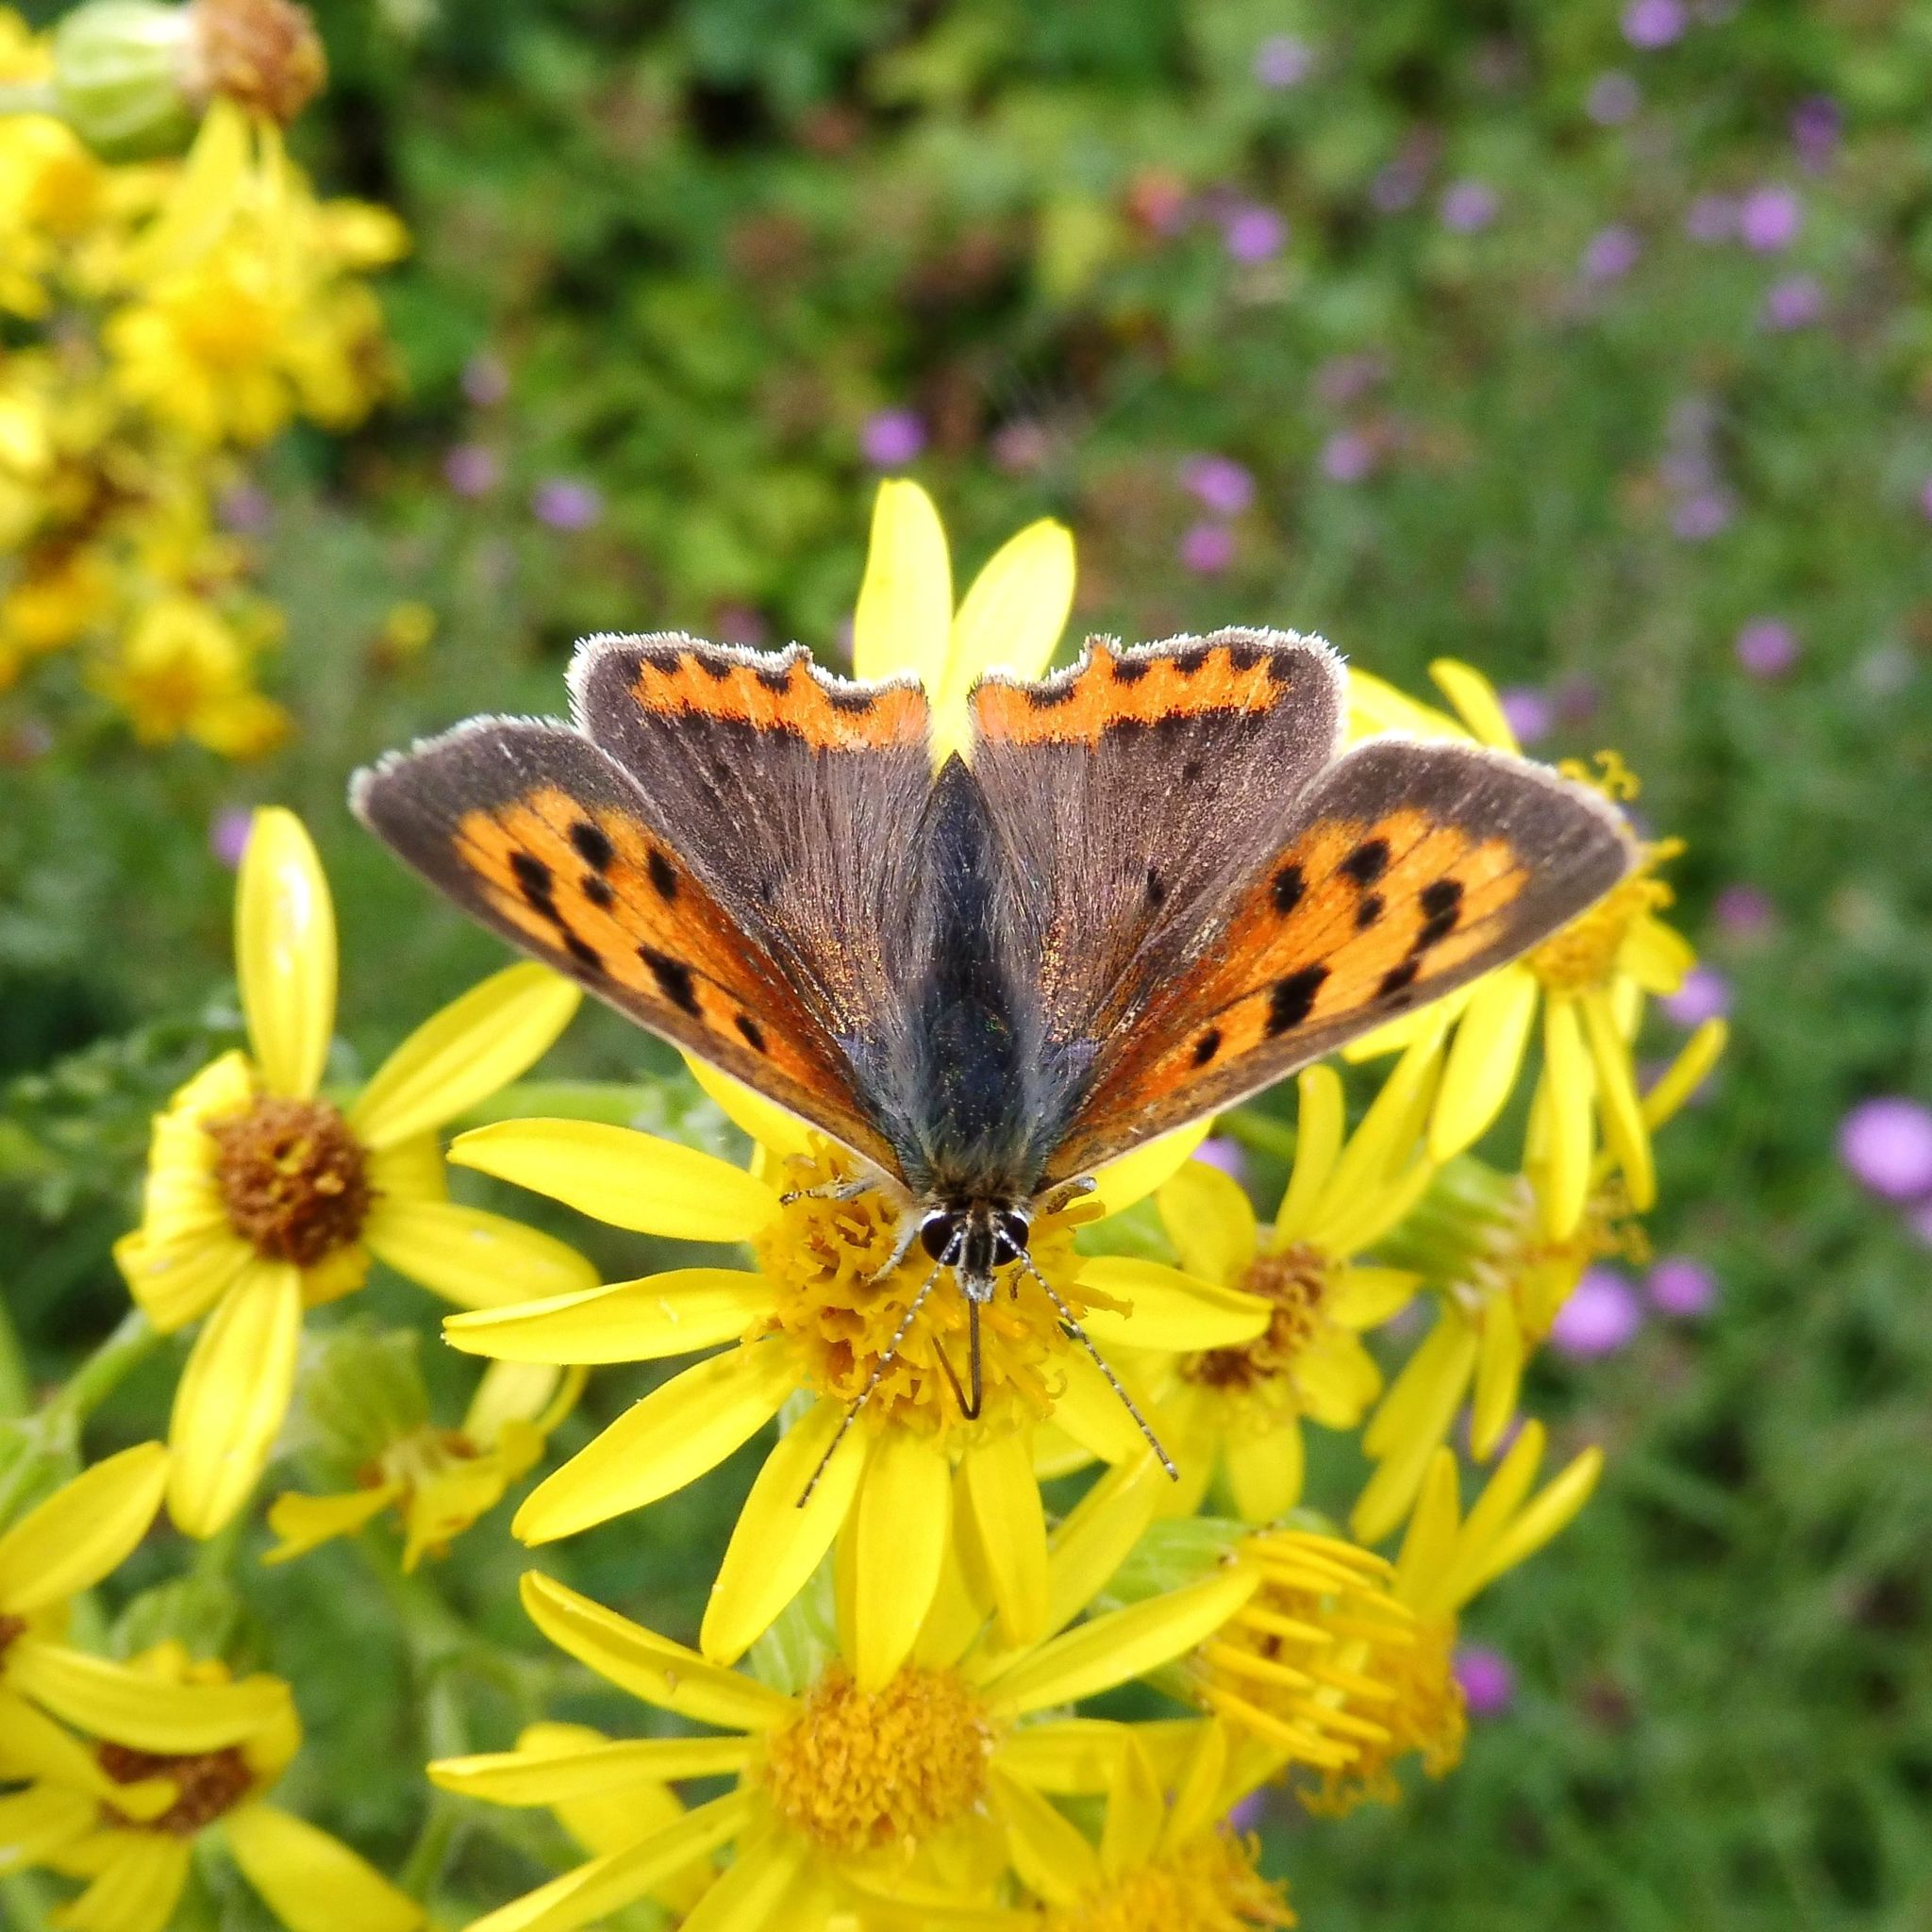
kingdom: Animalia
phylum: Arthropoda
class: Insecta
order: Lepidoptera
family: Lycaenidae
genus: Lycaena
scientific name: Lycaena phlaeas
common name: Small copper
